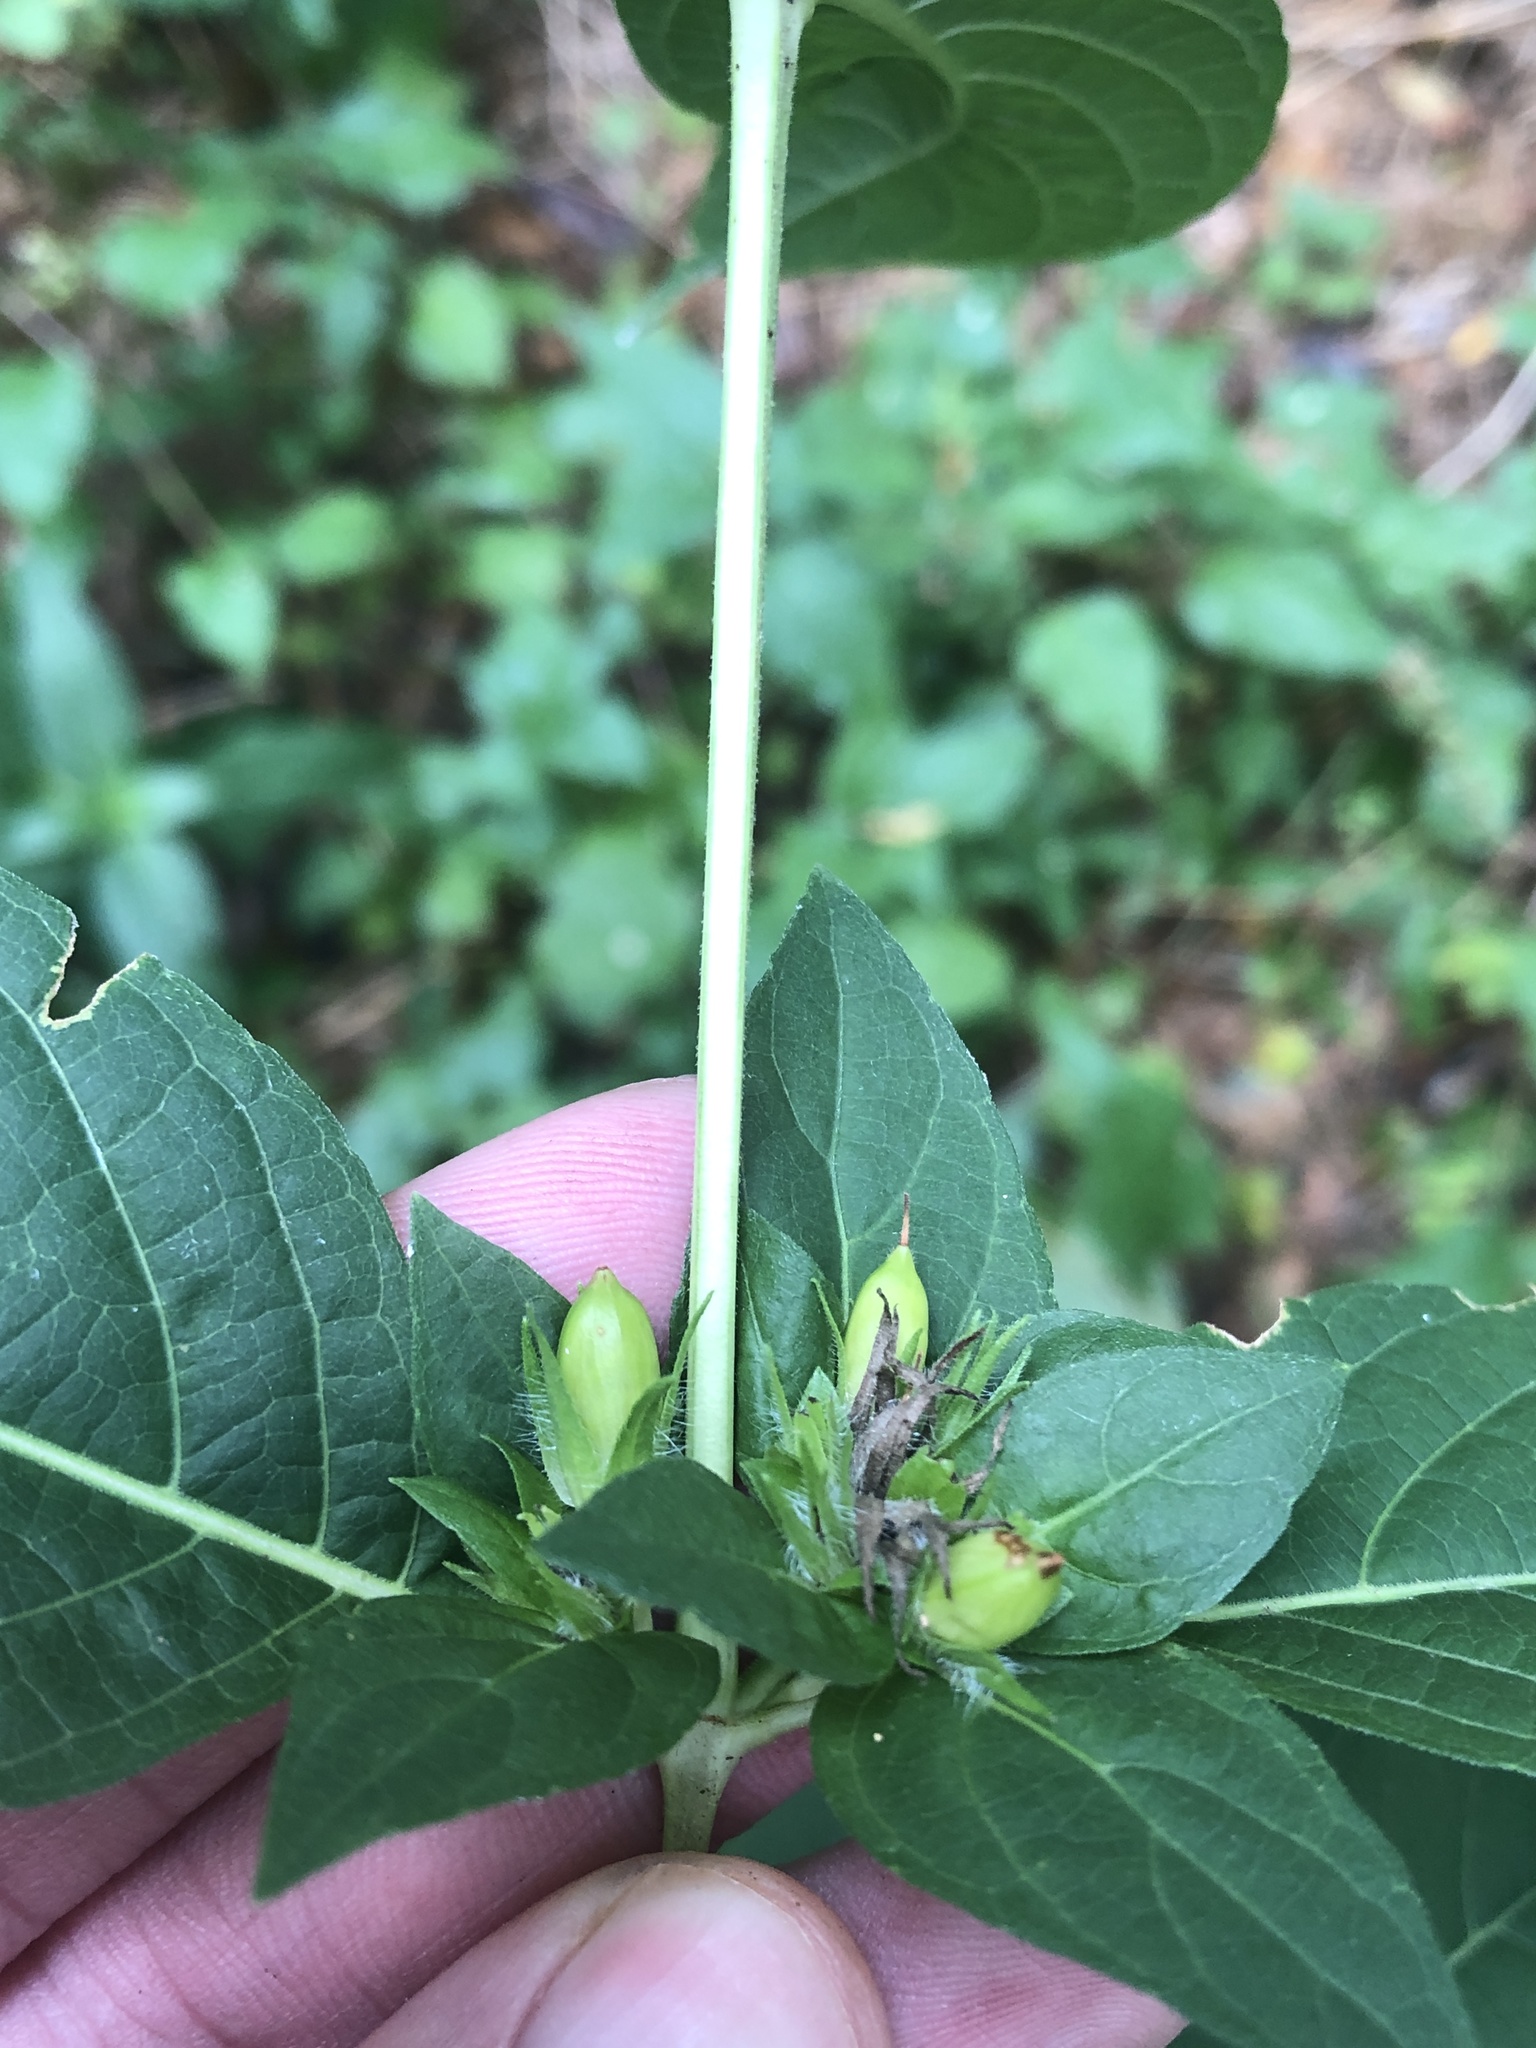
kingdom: Plantae
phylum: Tracheophyta
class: Magnoliopsida
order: Lamiales
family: Acanthaceae
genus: Ruellia
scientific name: Ruellia strepens
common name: Limestone wild petunia
